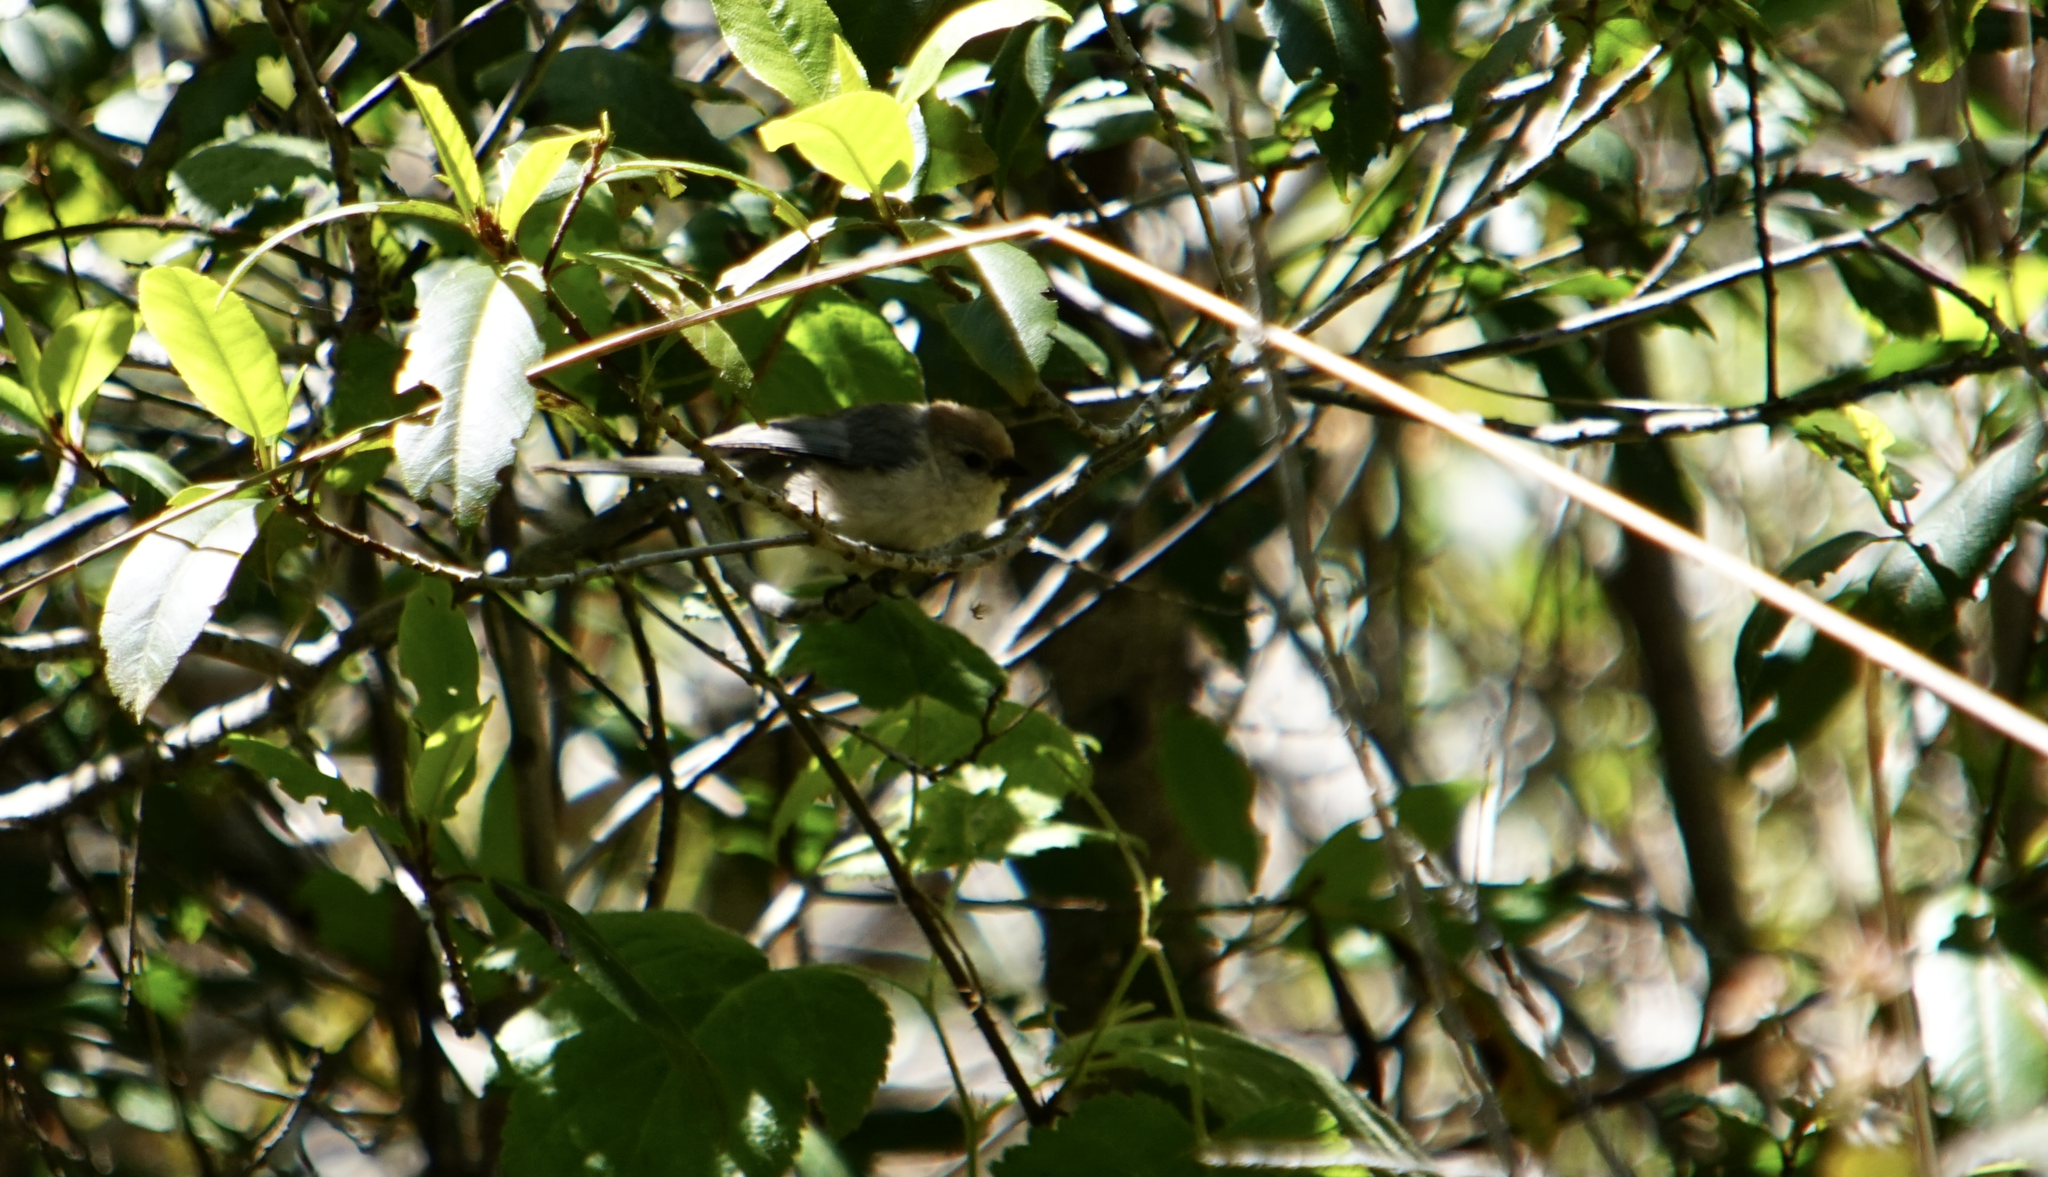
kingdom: Animalia
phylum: Chordata
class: Aves
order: Passeriformes
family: Aegithalidae
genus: Psaltriparus
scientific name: Psaltriparus minimus
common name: American bushtit
